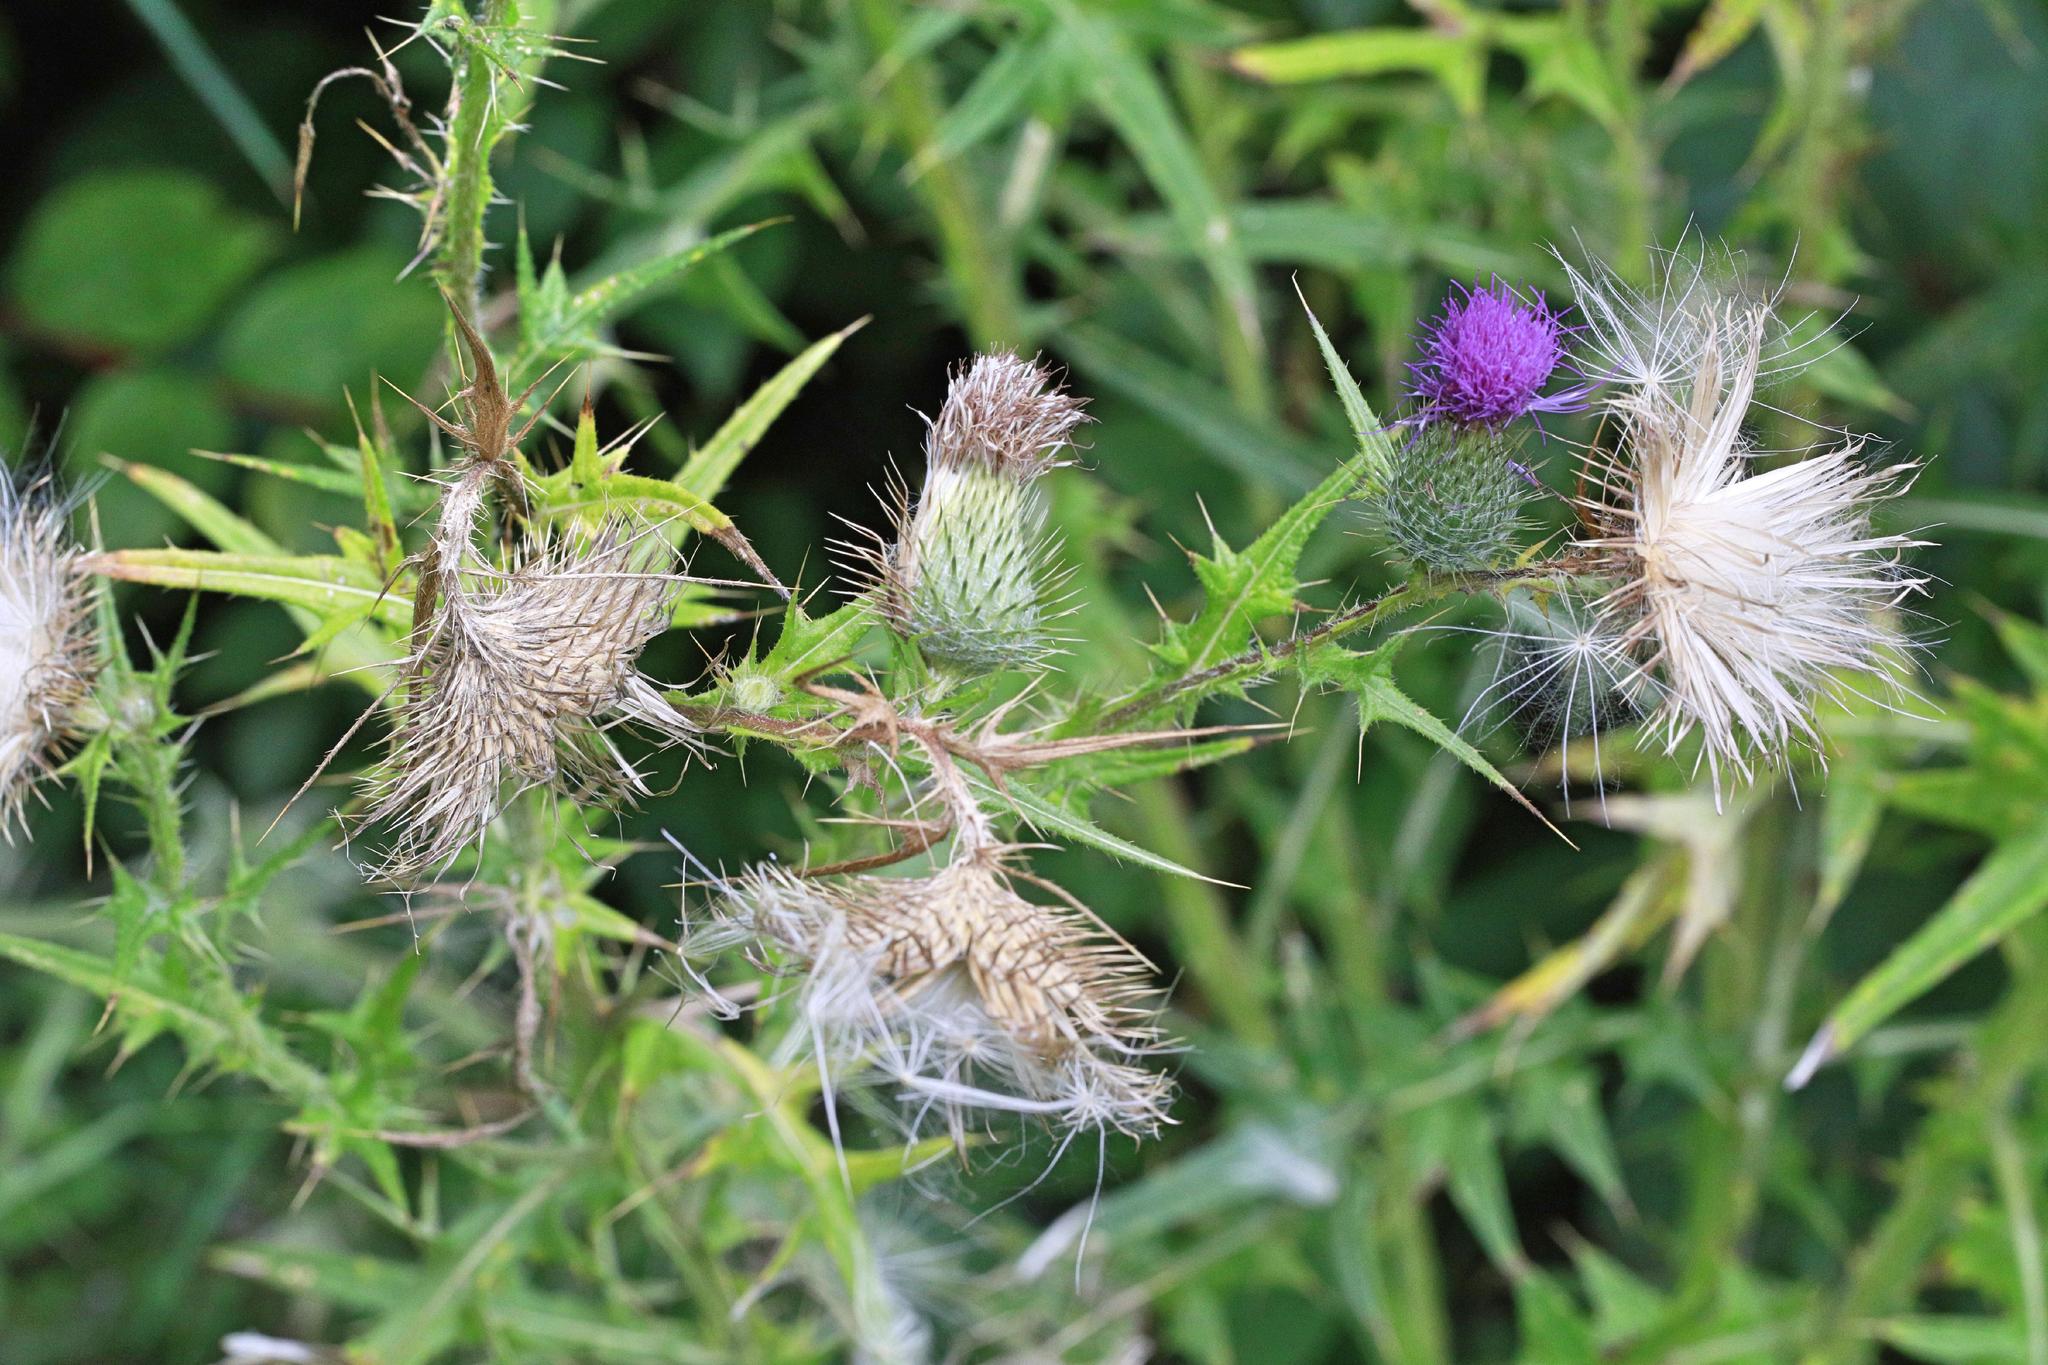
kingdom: Plantae
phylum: Tracheophyta
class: Magnoliopsida
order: Asterales
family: Asteraceae
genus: Cirsium
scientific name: Cirsium vulgare
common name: Bull thistle
